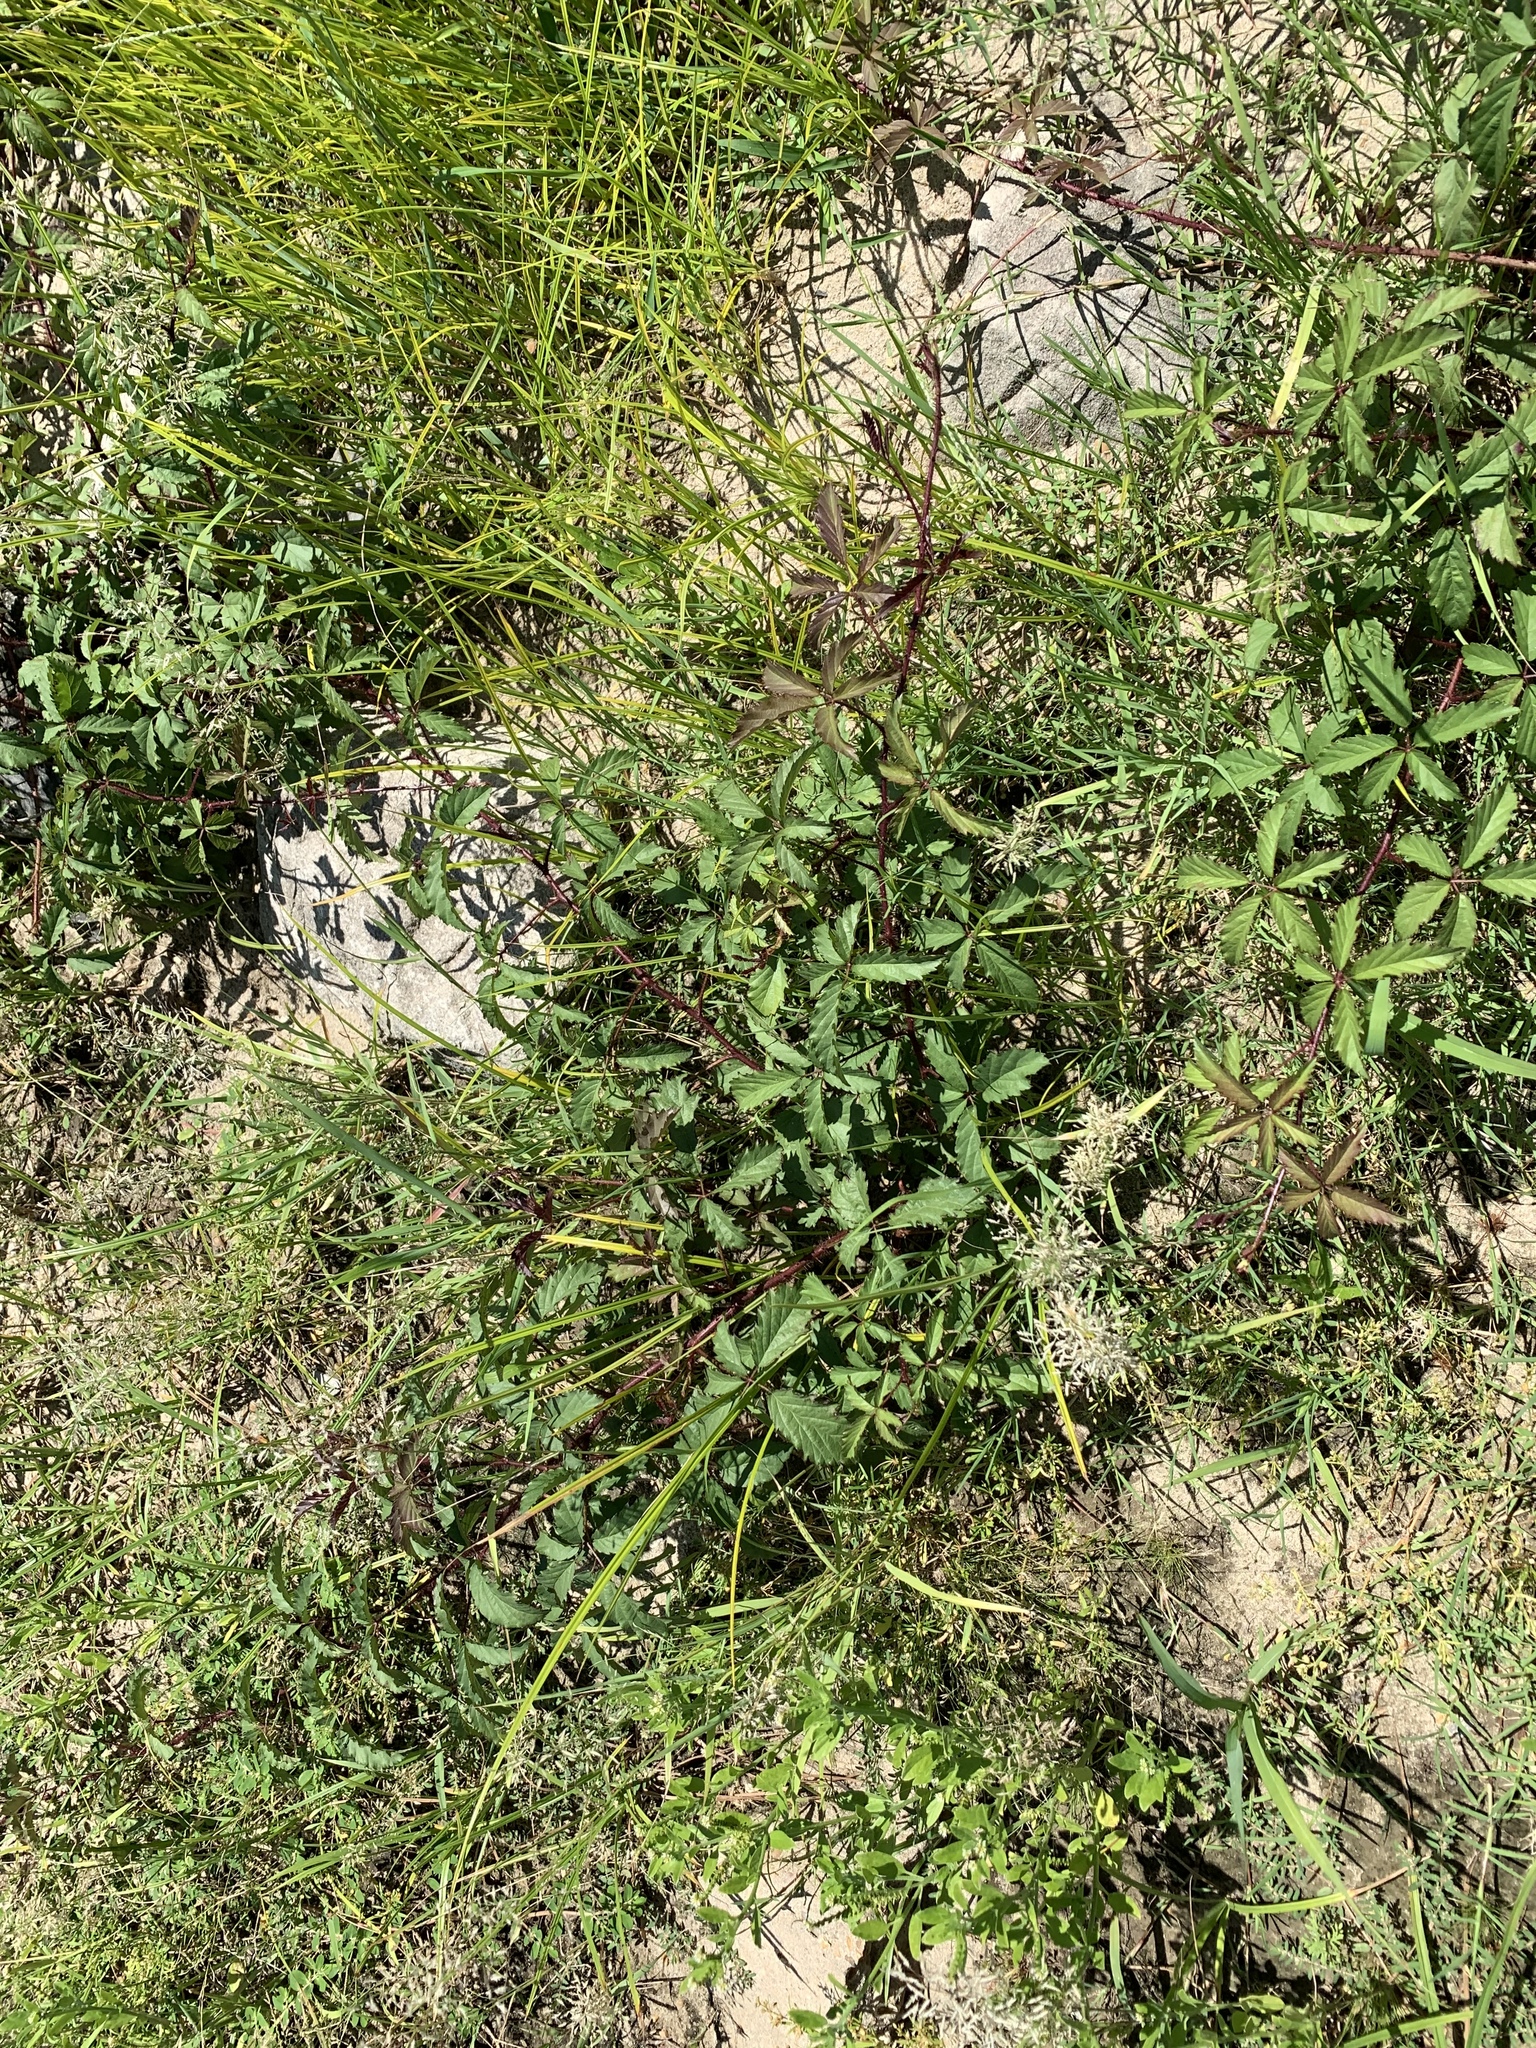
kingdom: Plantae
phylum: Tracheophyta
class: Magnoliopsida
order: Rosales
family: Rosaceae
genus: Rubus
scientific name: Rubus trivialis
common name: Southern dewberry
